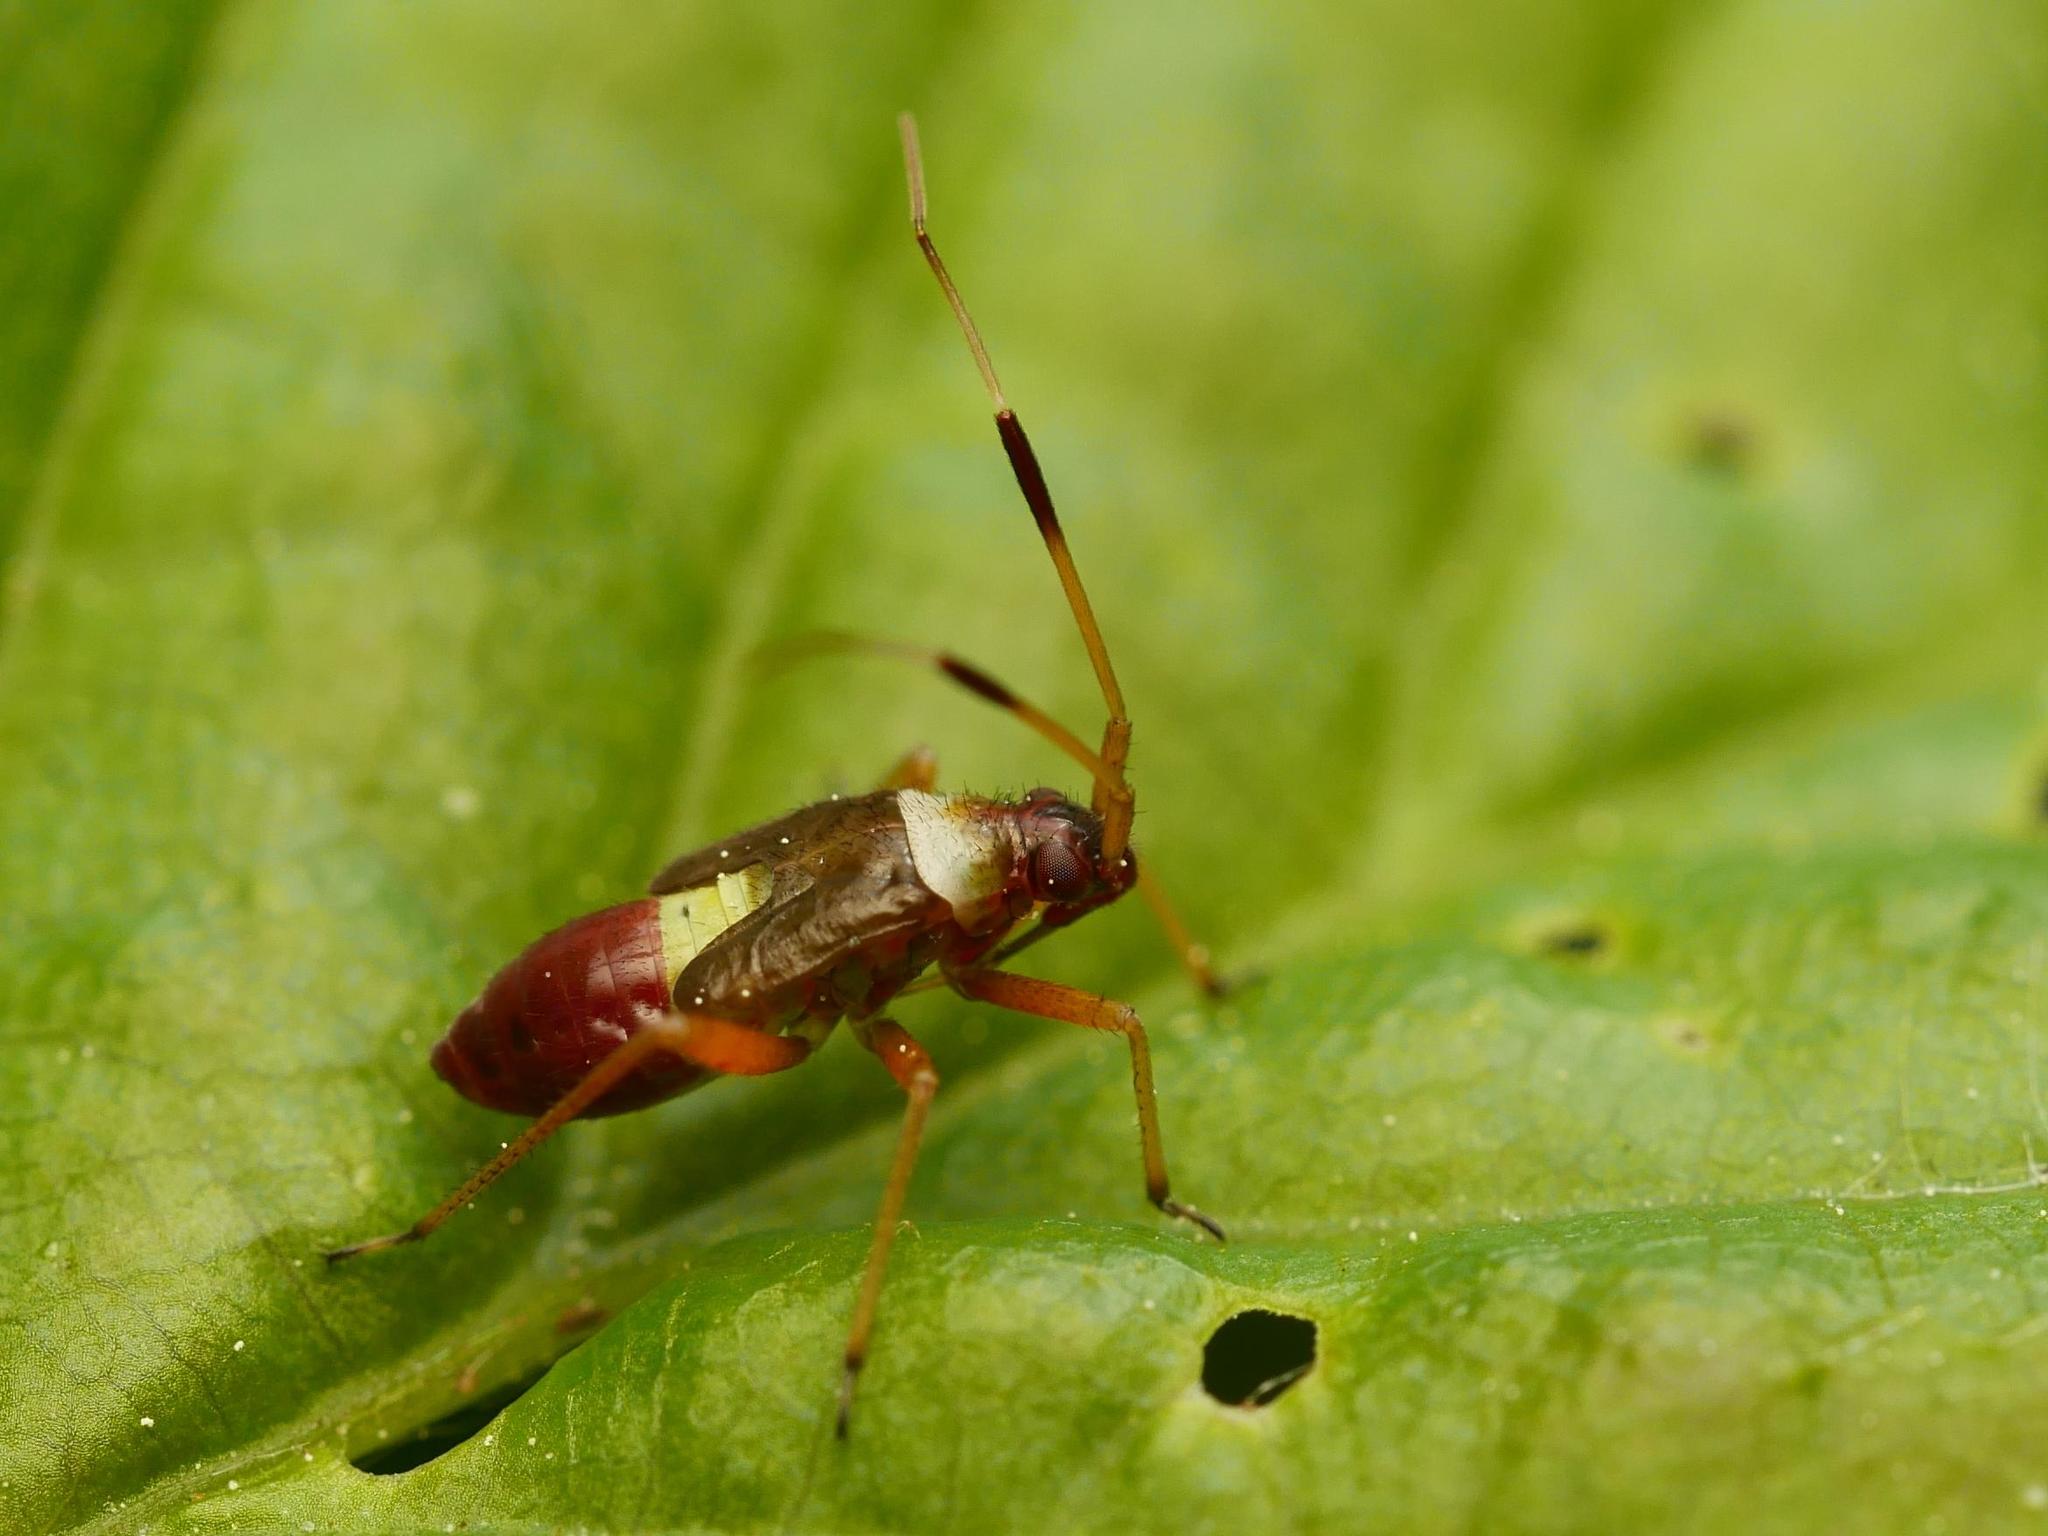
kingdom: Animalia
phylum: Arthropoda
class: Insecta
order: Hemiptera
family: Miridae
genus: Closterotomus
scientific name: Closterotomus biclavatus
